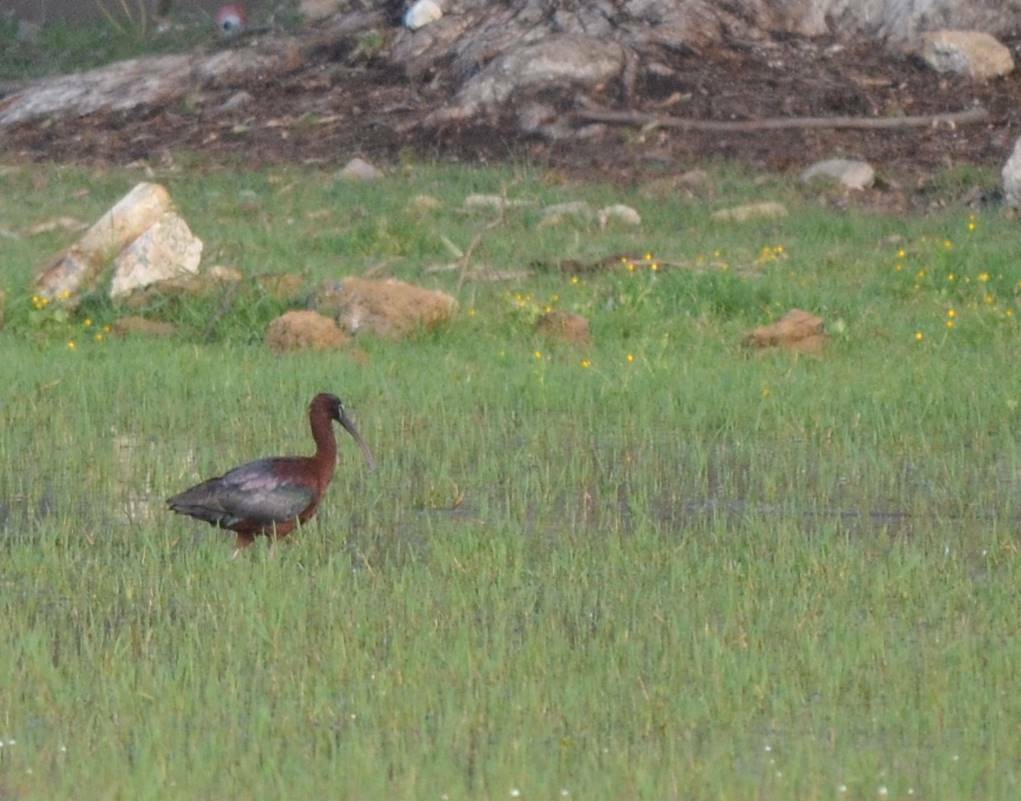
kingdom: Animalia
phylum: Chordata
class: Aves
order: Pelecaniformes
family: Threskiornithidae
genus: Plegadis
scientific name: Plegadis falcinellus
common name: Glossy ibis
